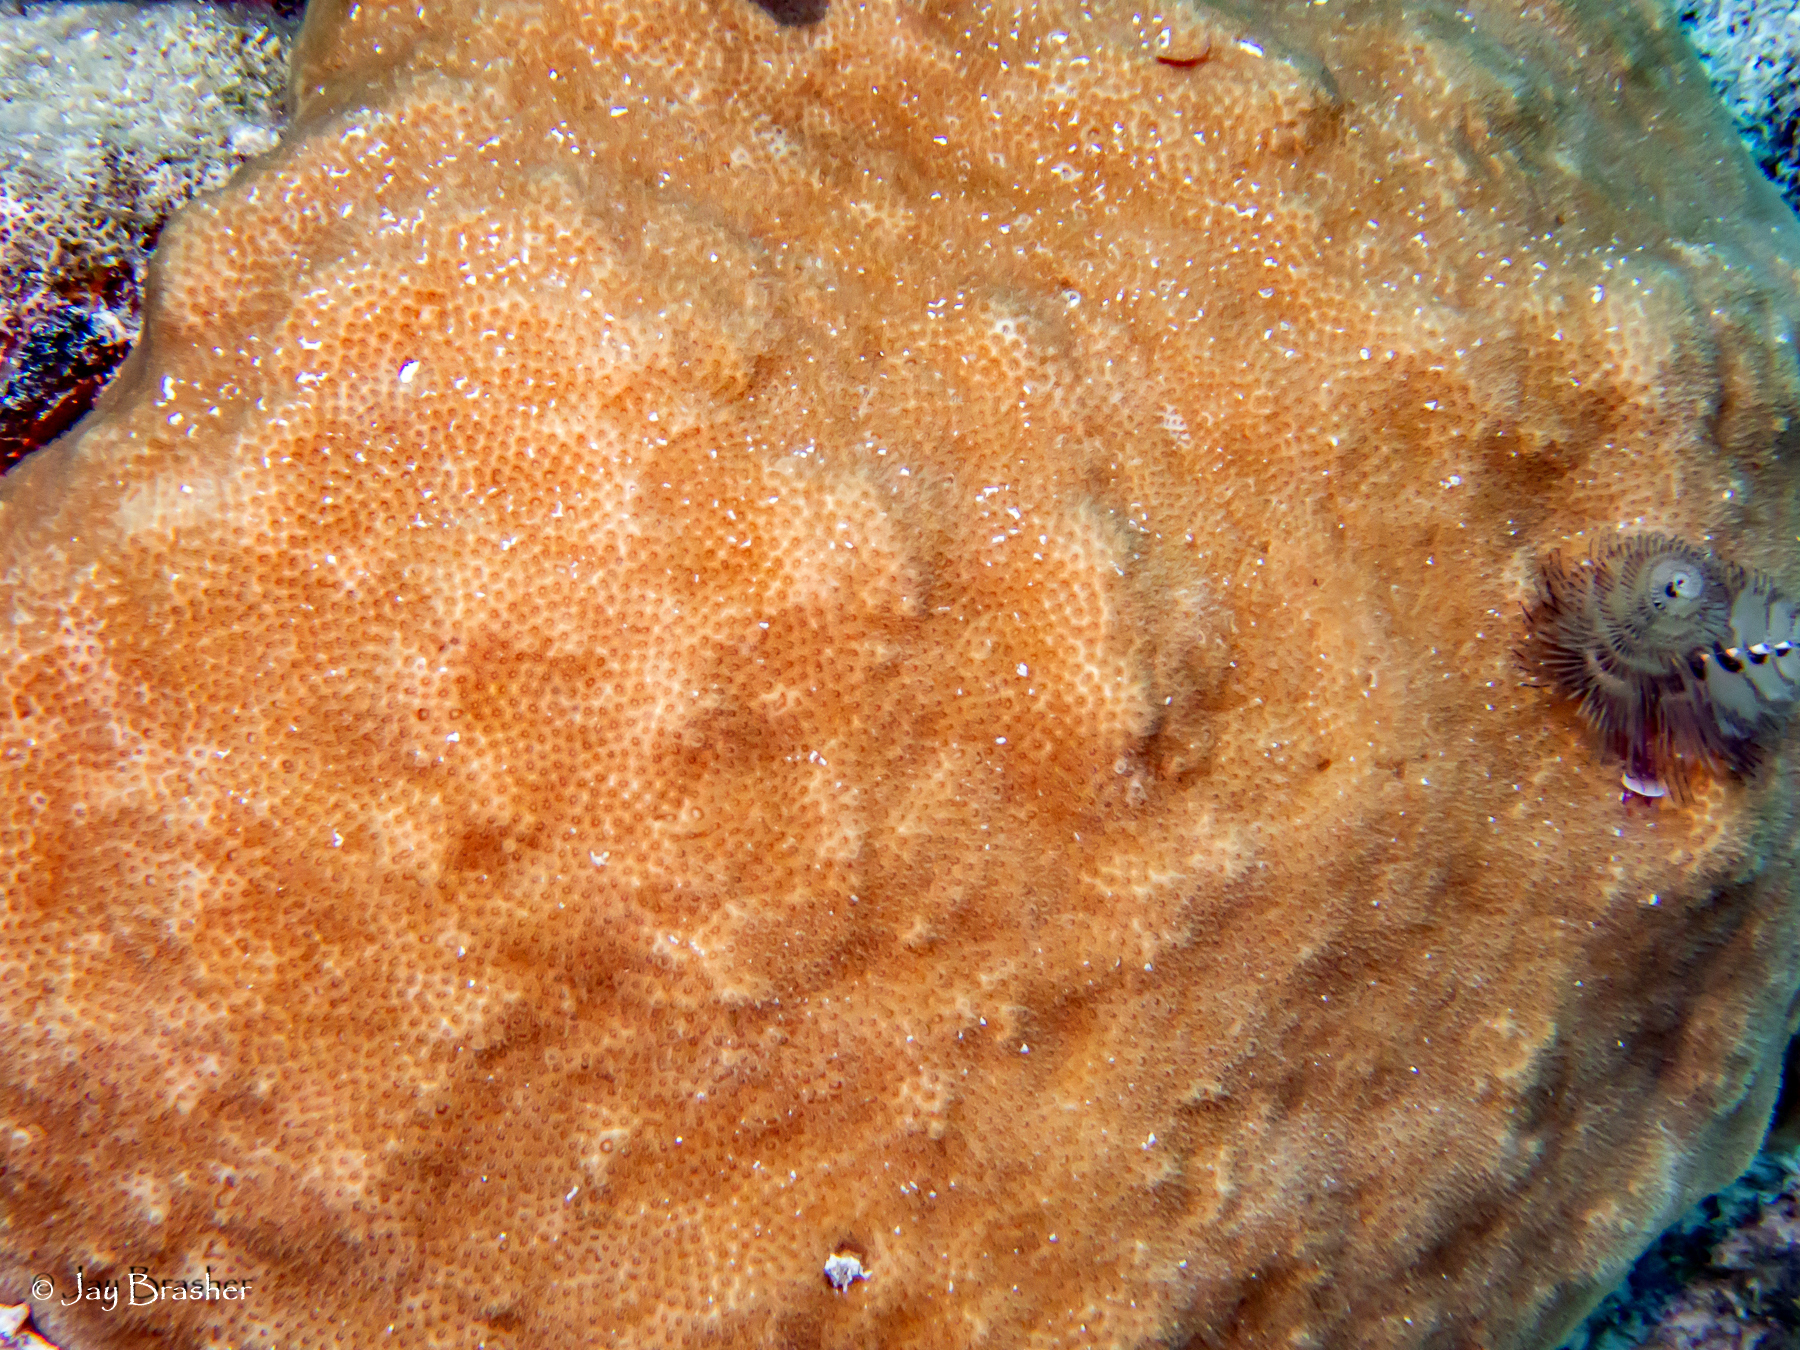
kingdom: Animalia
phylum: Annelida
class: Polychaeta
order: Sabellida
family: Serpulidae
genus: Spirobranchus
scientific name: Spirobranchus giganteus
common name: Christmas tree worm
